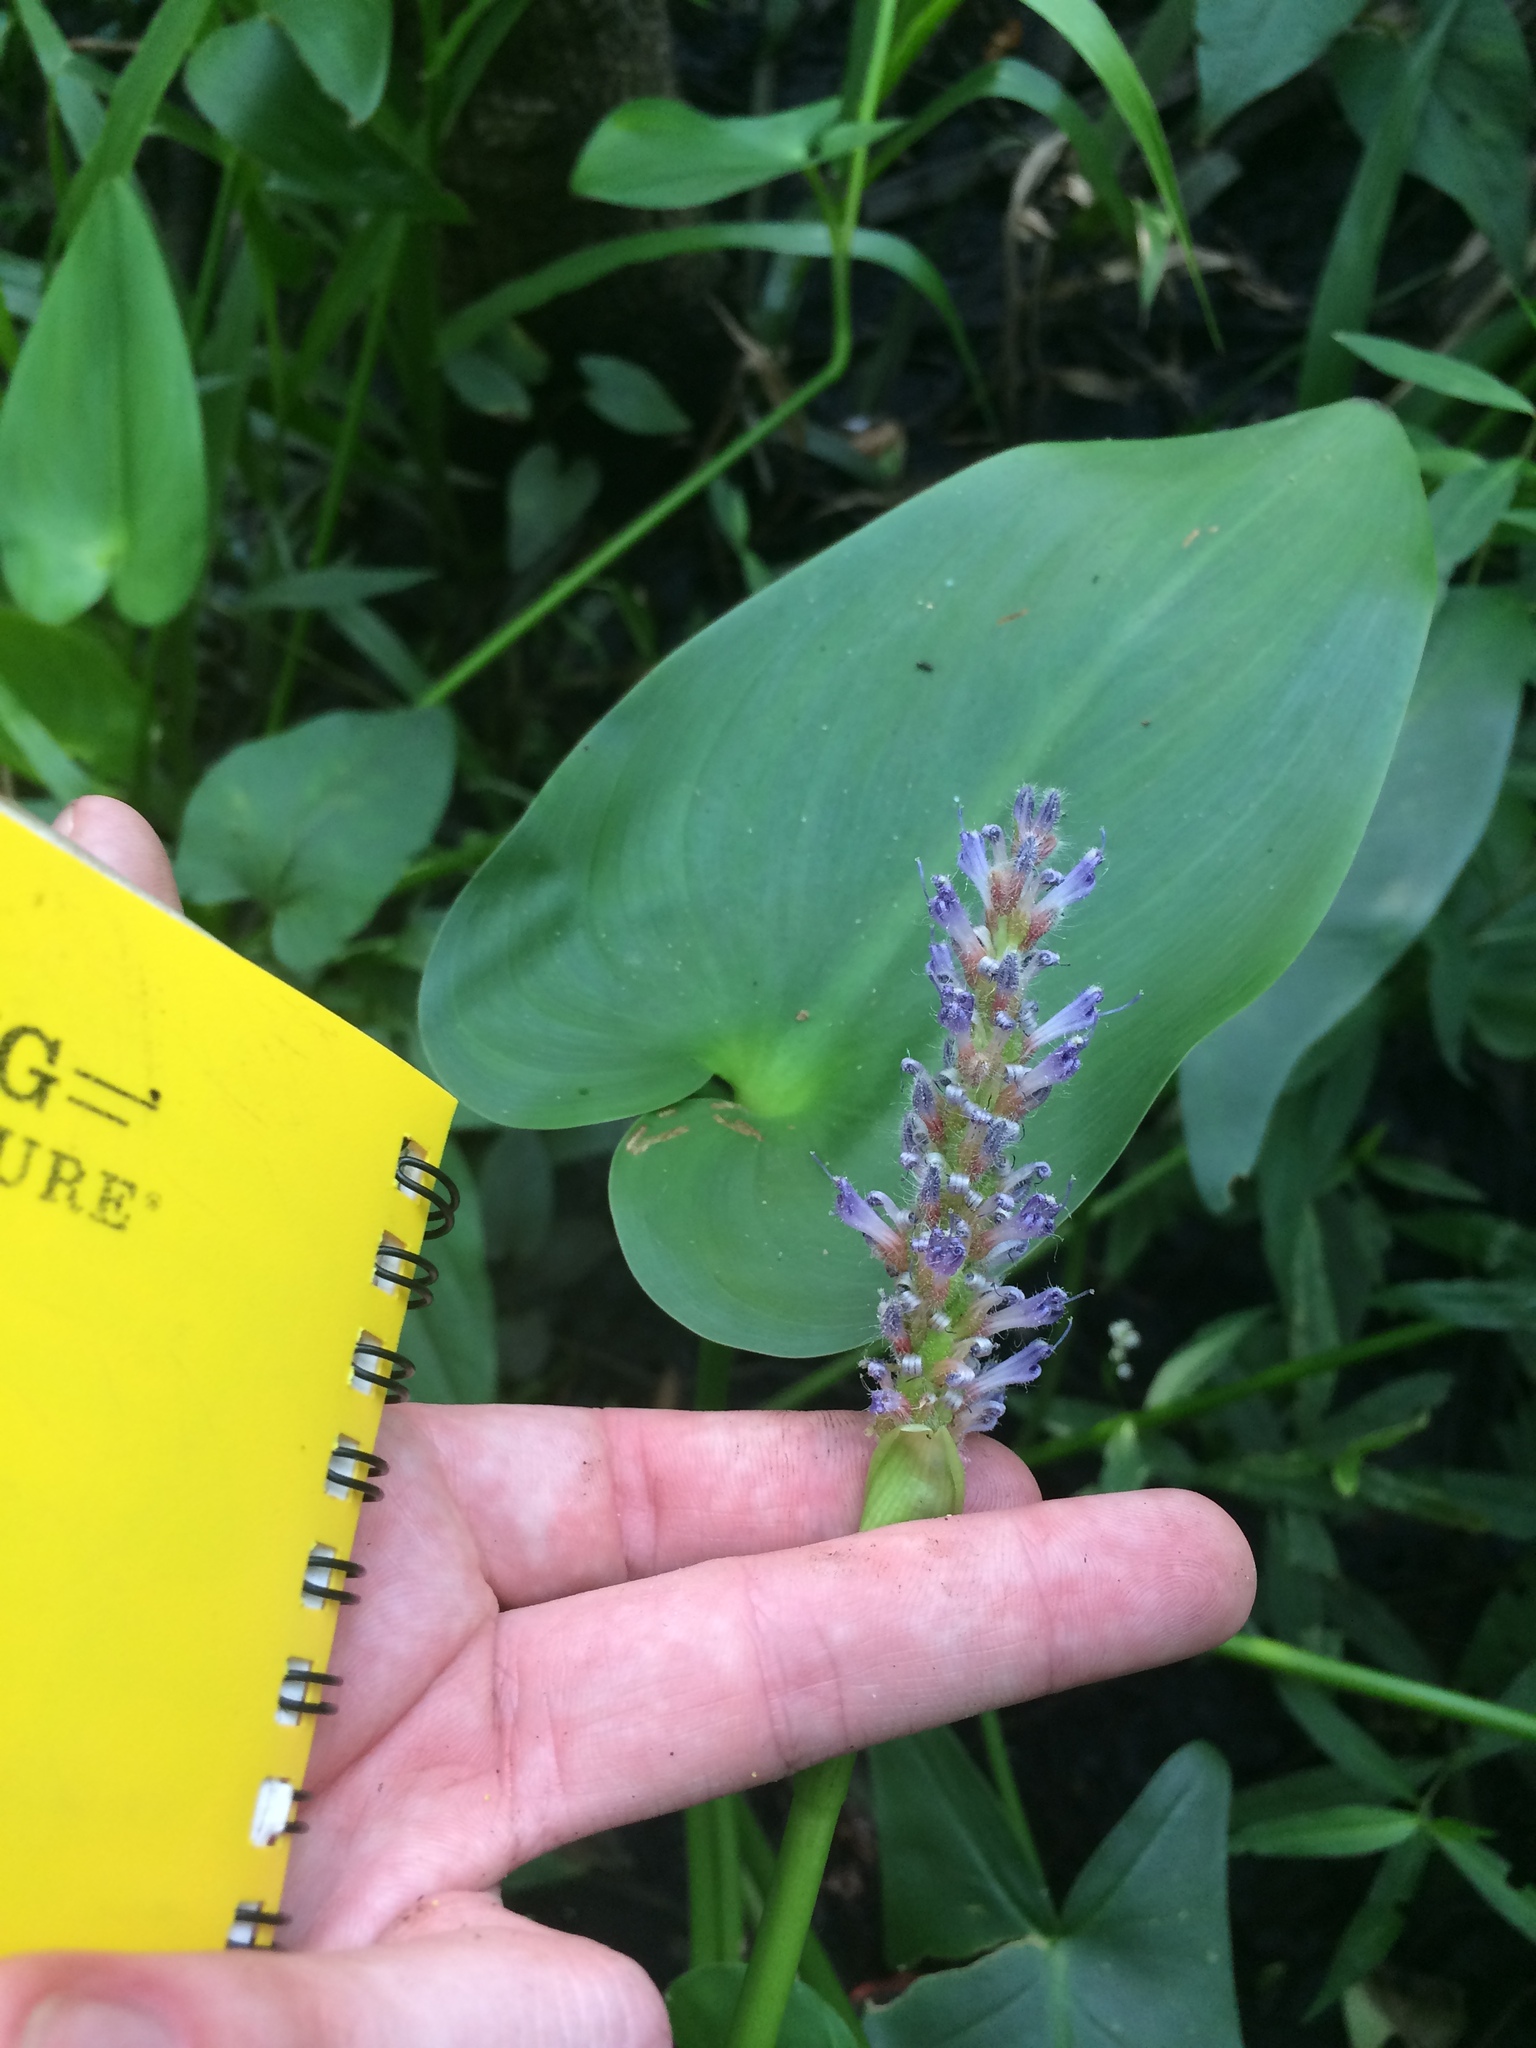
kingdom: Plantae
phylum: Tracheophyta
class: Liliopsida
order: Commelinales
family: Pontederiaceae
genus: Pontederia
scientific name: Pontederia cordata
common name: Pickerelweed
